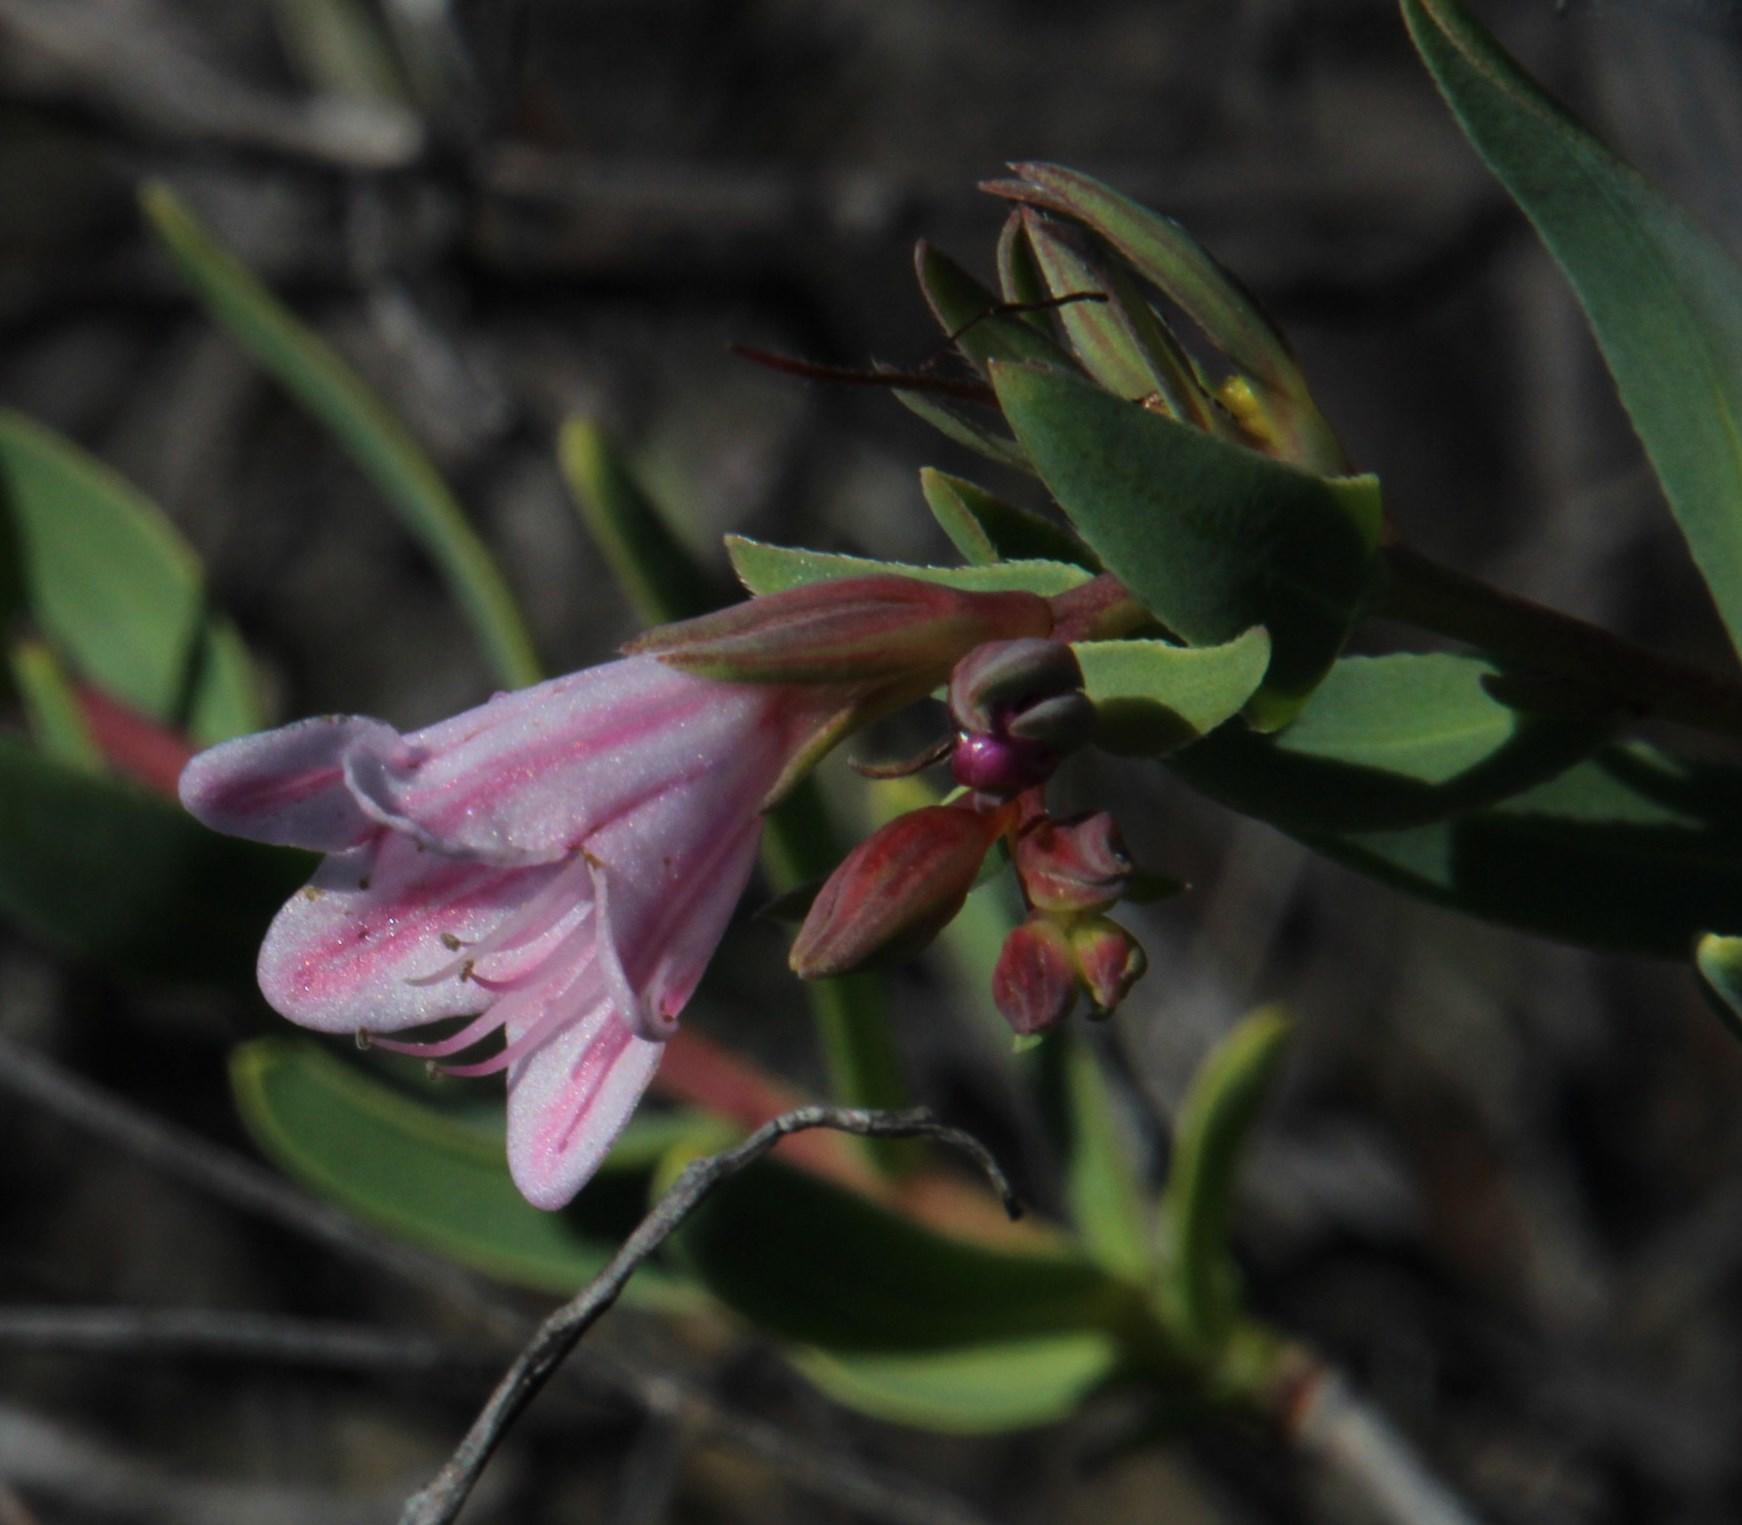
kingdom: Plantae
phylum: Tracheophyta
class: Magnoliopsida
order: Boraginales
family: Boraginaceae
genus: Lobostemon
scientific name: Lobostemon glaucophyllus
